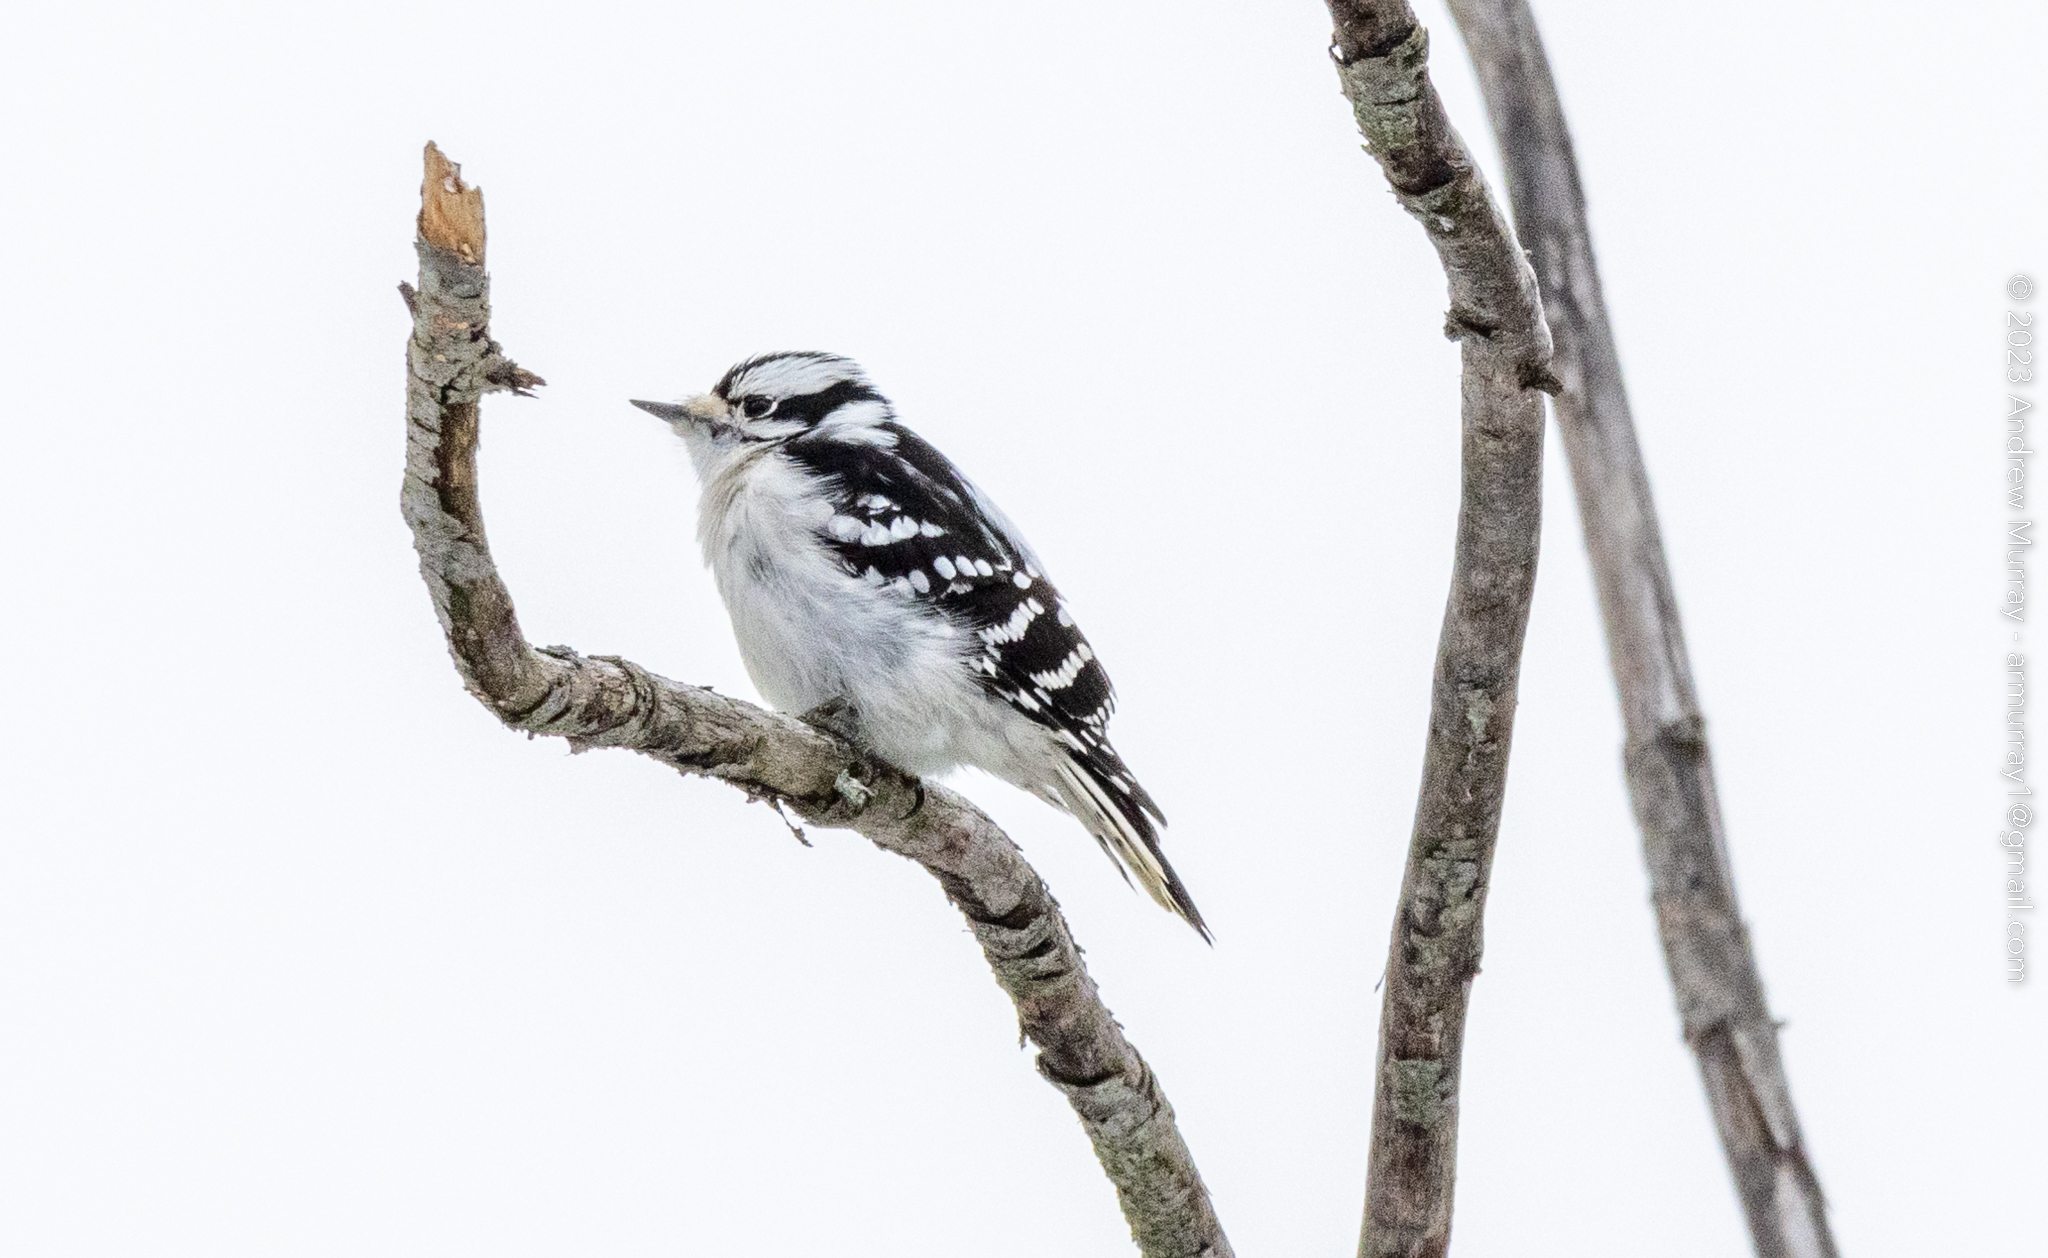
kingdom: Animalia
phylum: Chordata
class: Aves
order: Piciformes
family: Picidae
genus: Dryobates
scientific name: Dryobates pubescens
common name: Downy woodpecker
